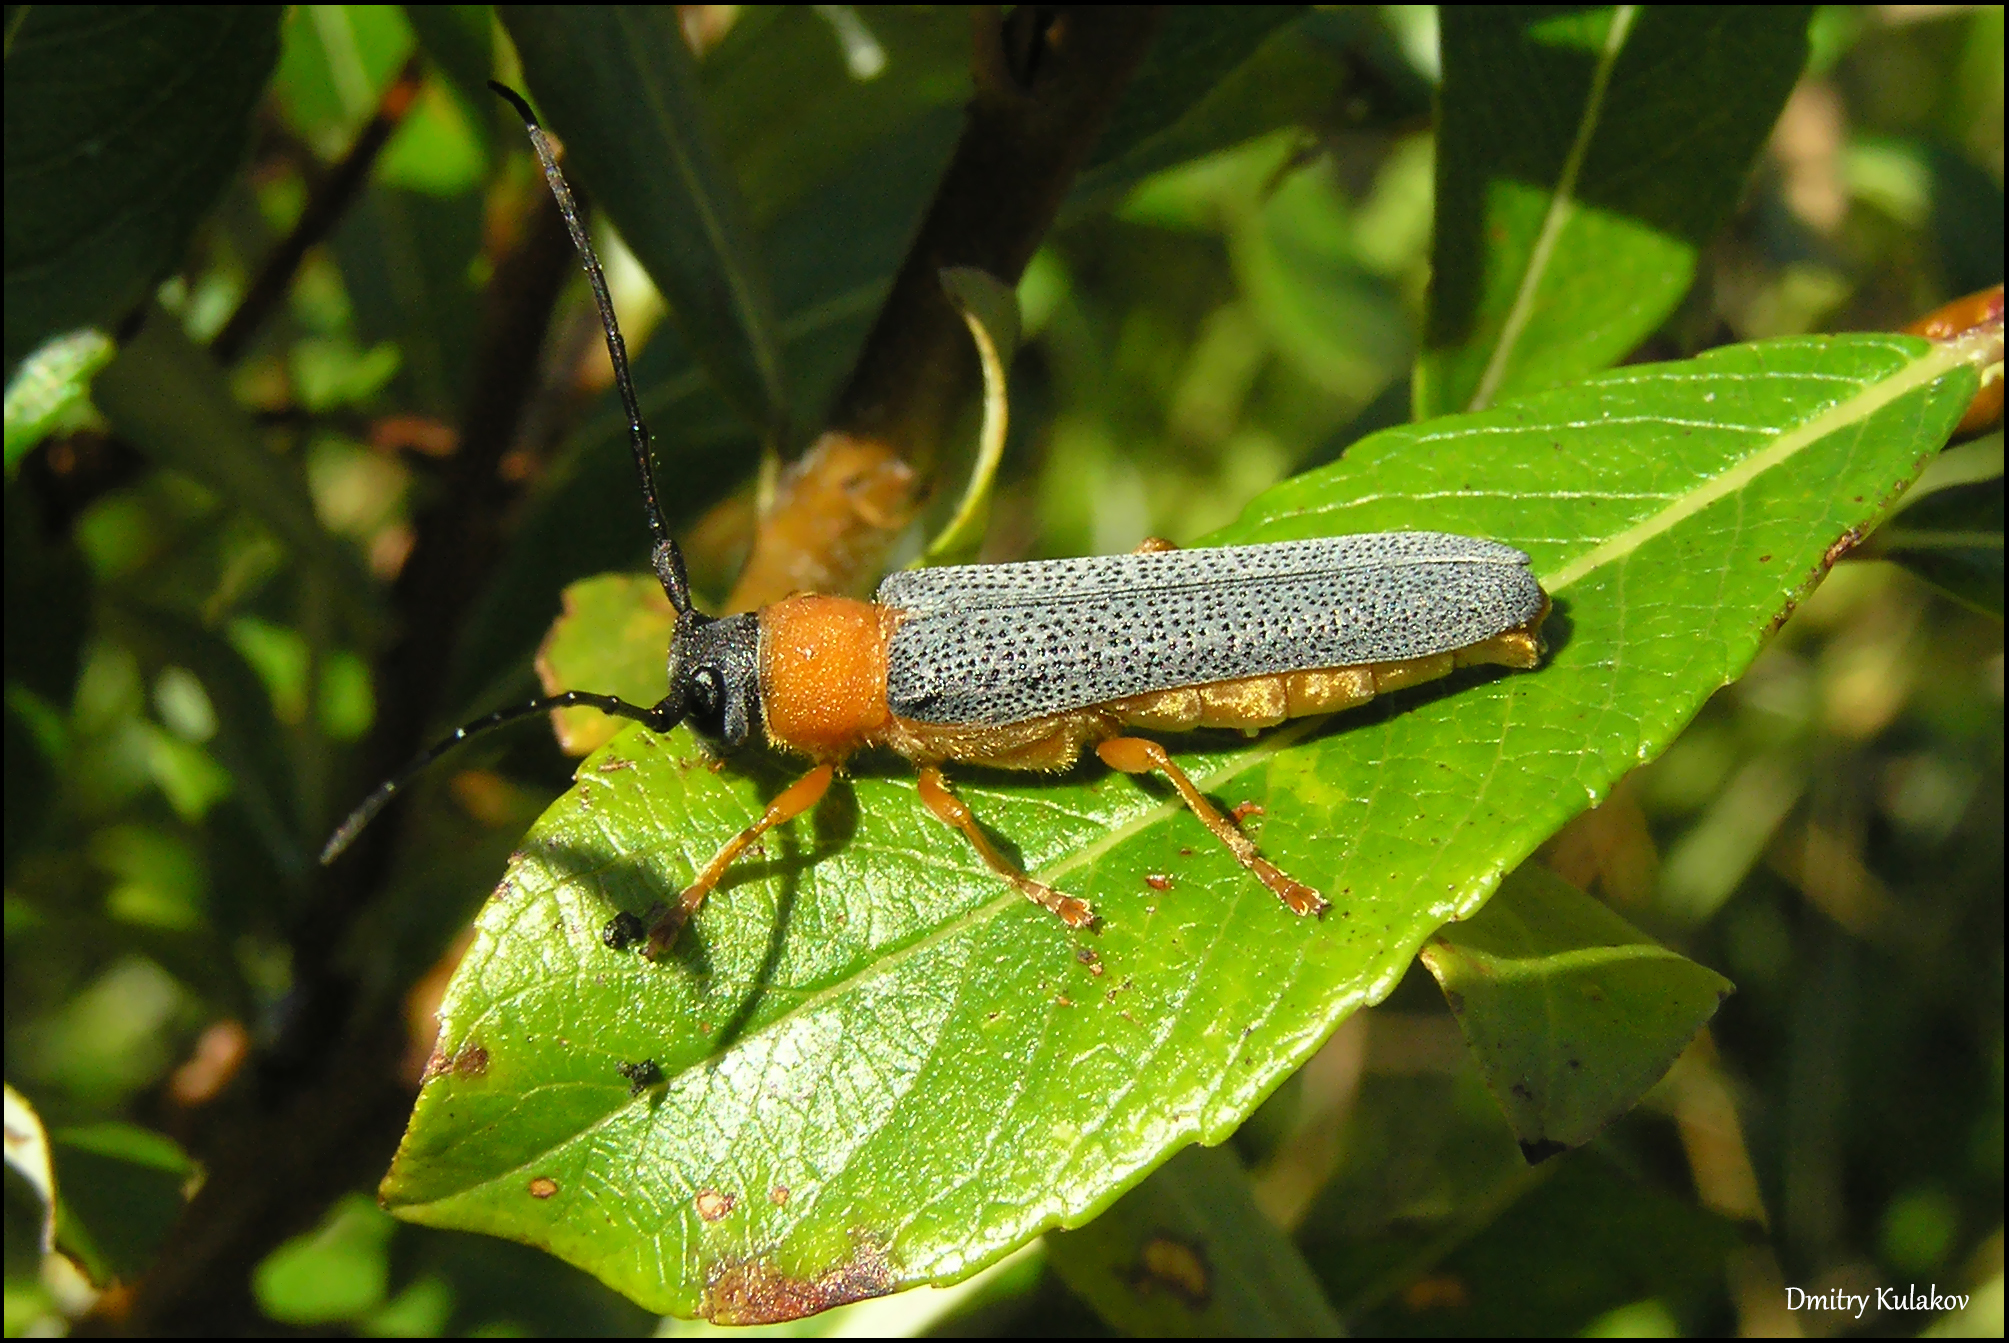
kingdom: Animalia
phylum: Arthropoda
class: Insecta
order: Coleoptera
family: Cerambycidae
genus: Oberea
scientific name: Oberea oculata
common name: Eyed longhorn beetle
